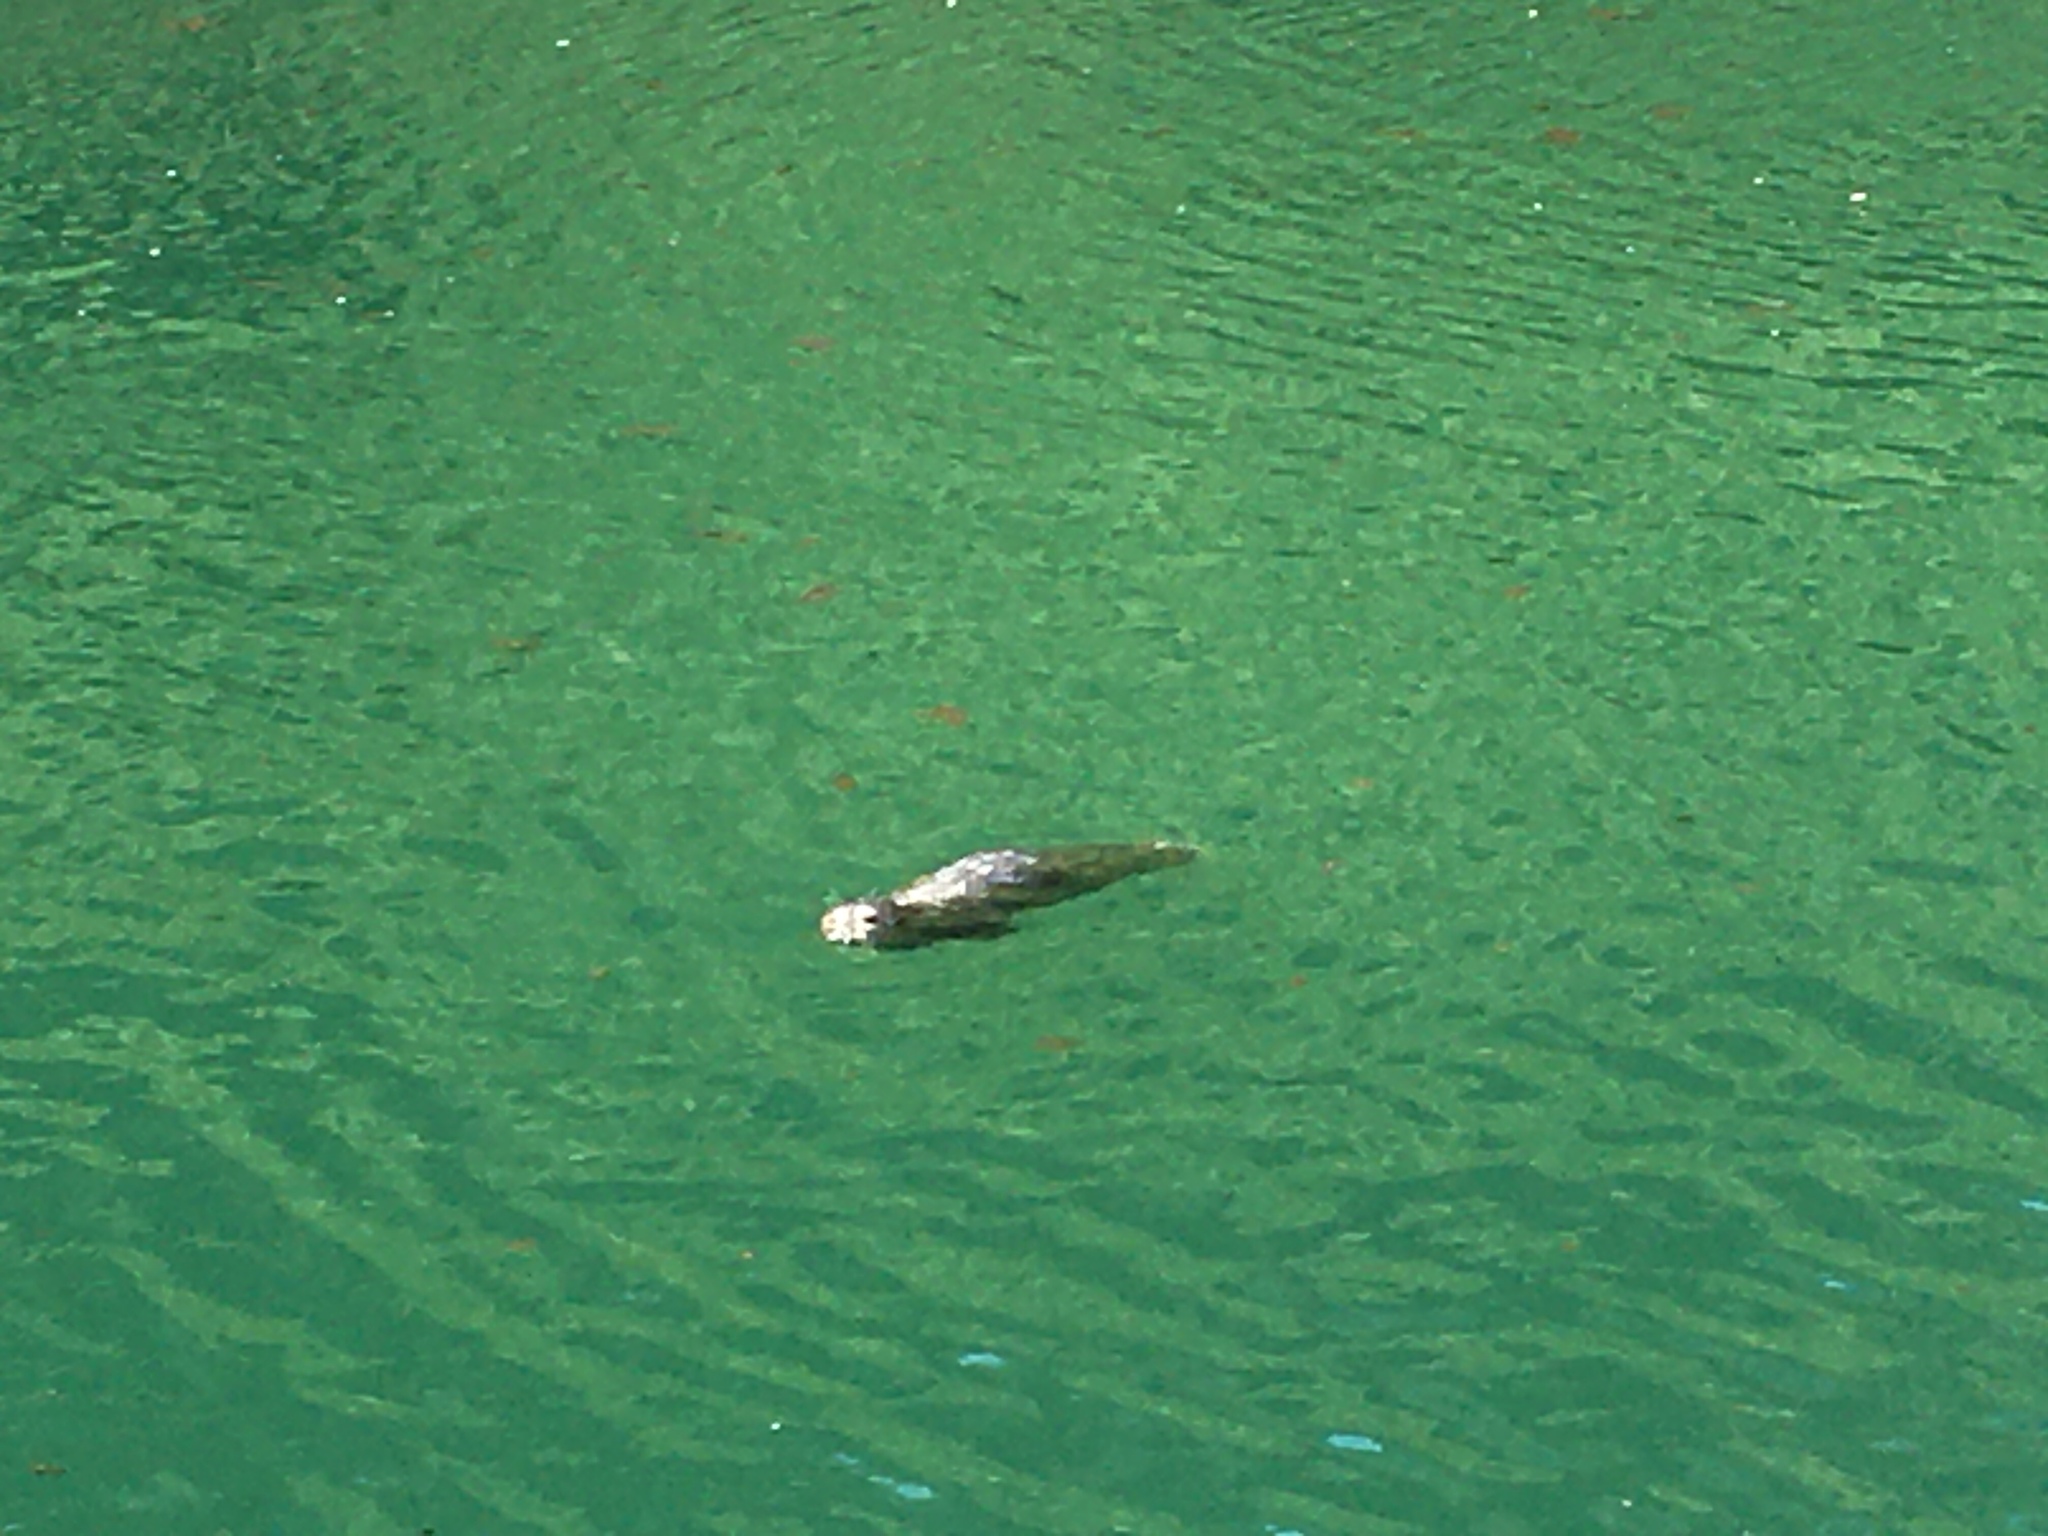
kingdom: Animalia
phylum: Chordata
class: Mammalia
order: Carnivora
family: Phocidae
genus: Phoca
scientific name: Phoca vitulina
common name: Harbor seal
